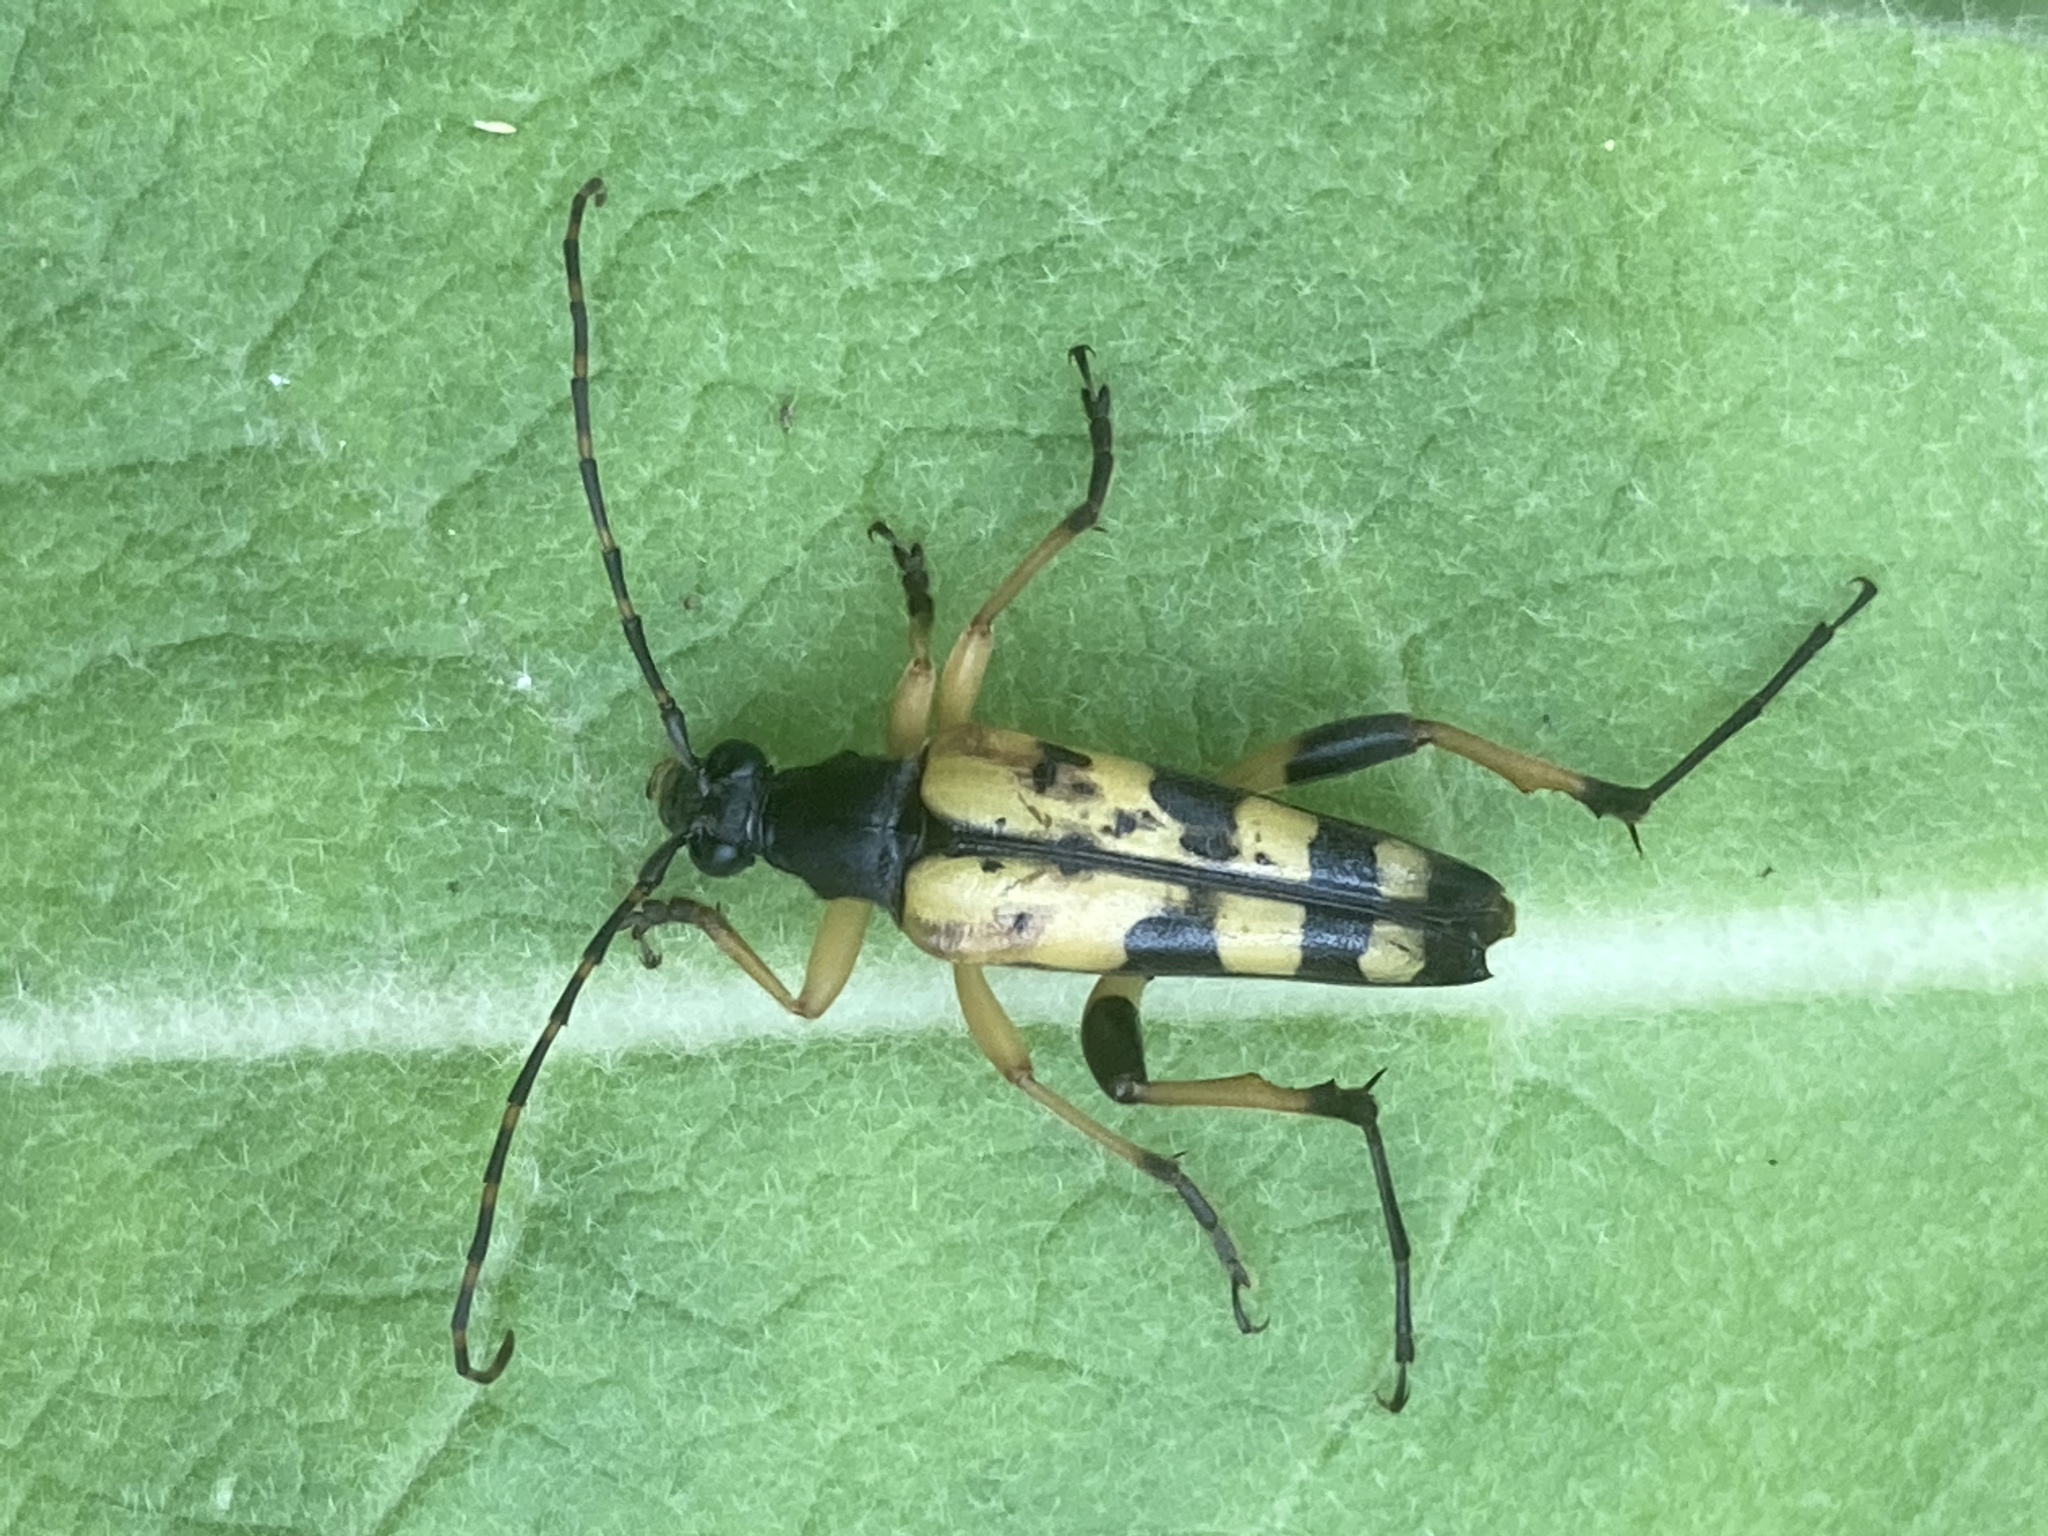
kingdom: Animalia
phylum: Arthropoda
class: Insecta
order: Coleoptera
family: Cerambycidae
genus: Rutpela
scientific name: Rutpela maculata
